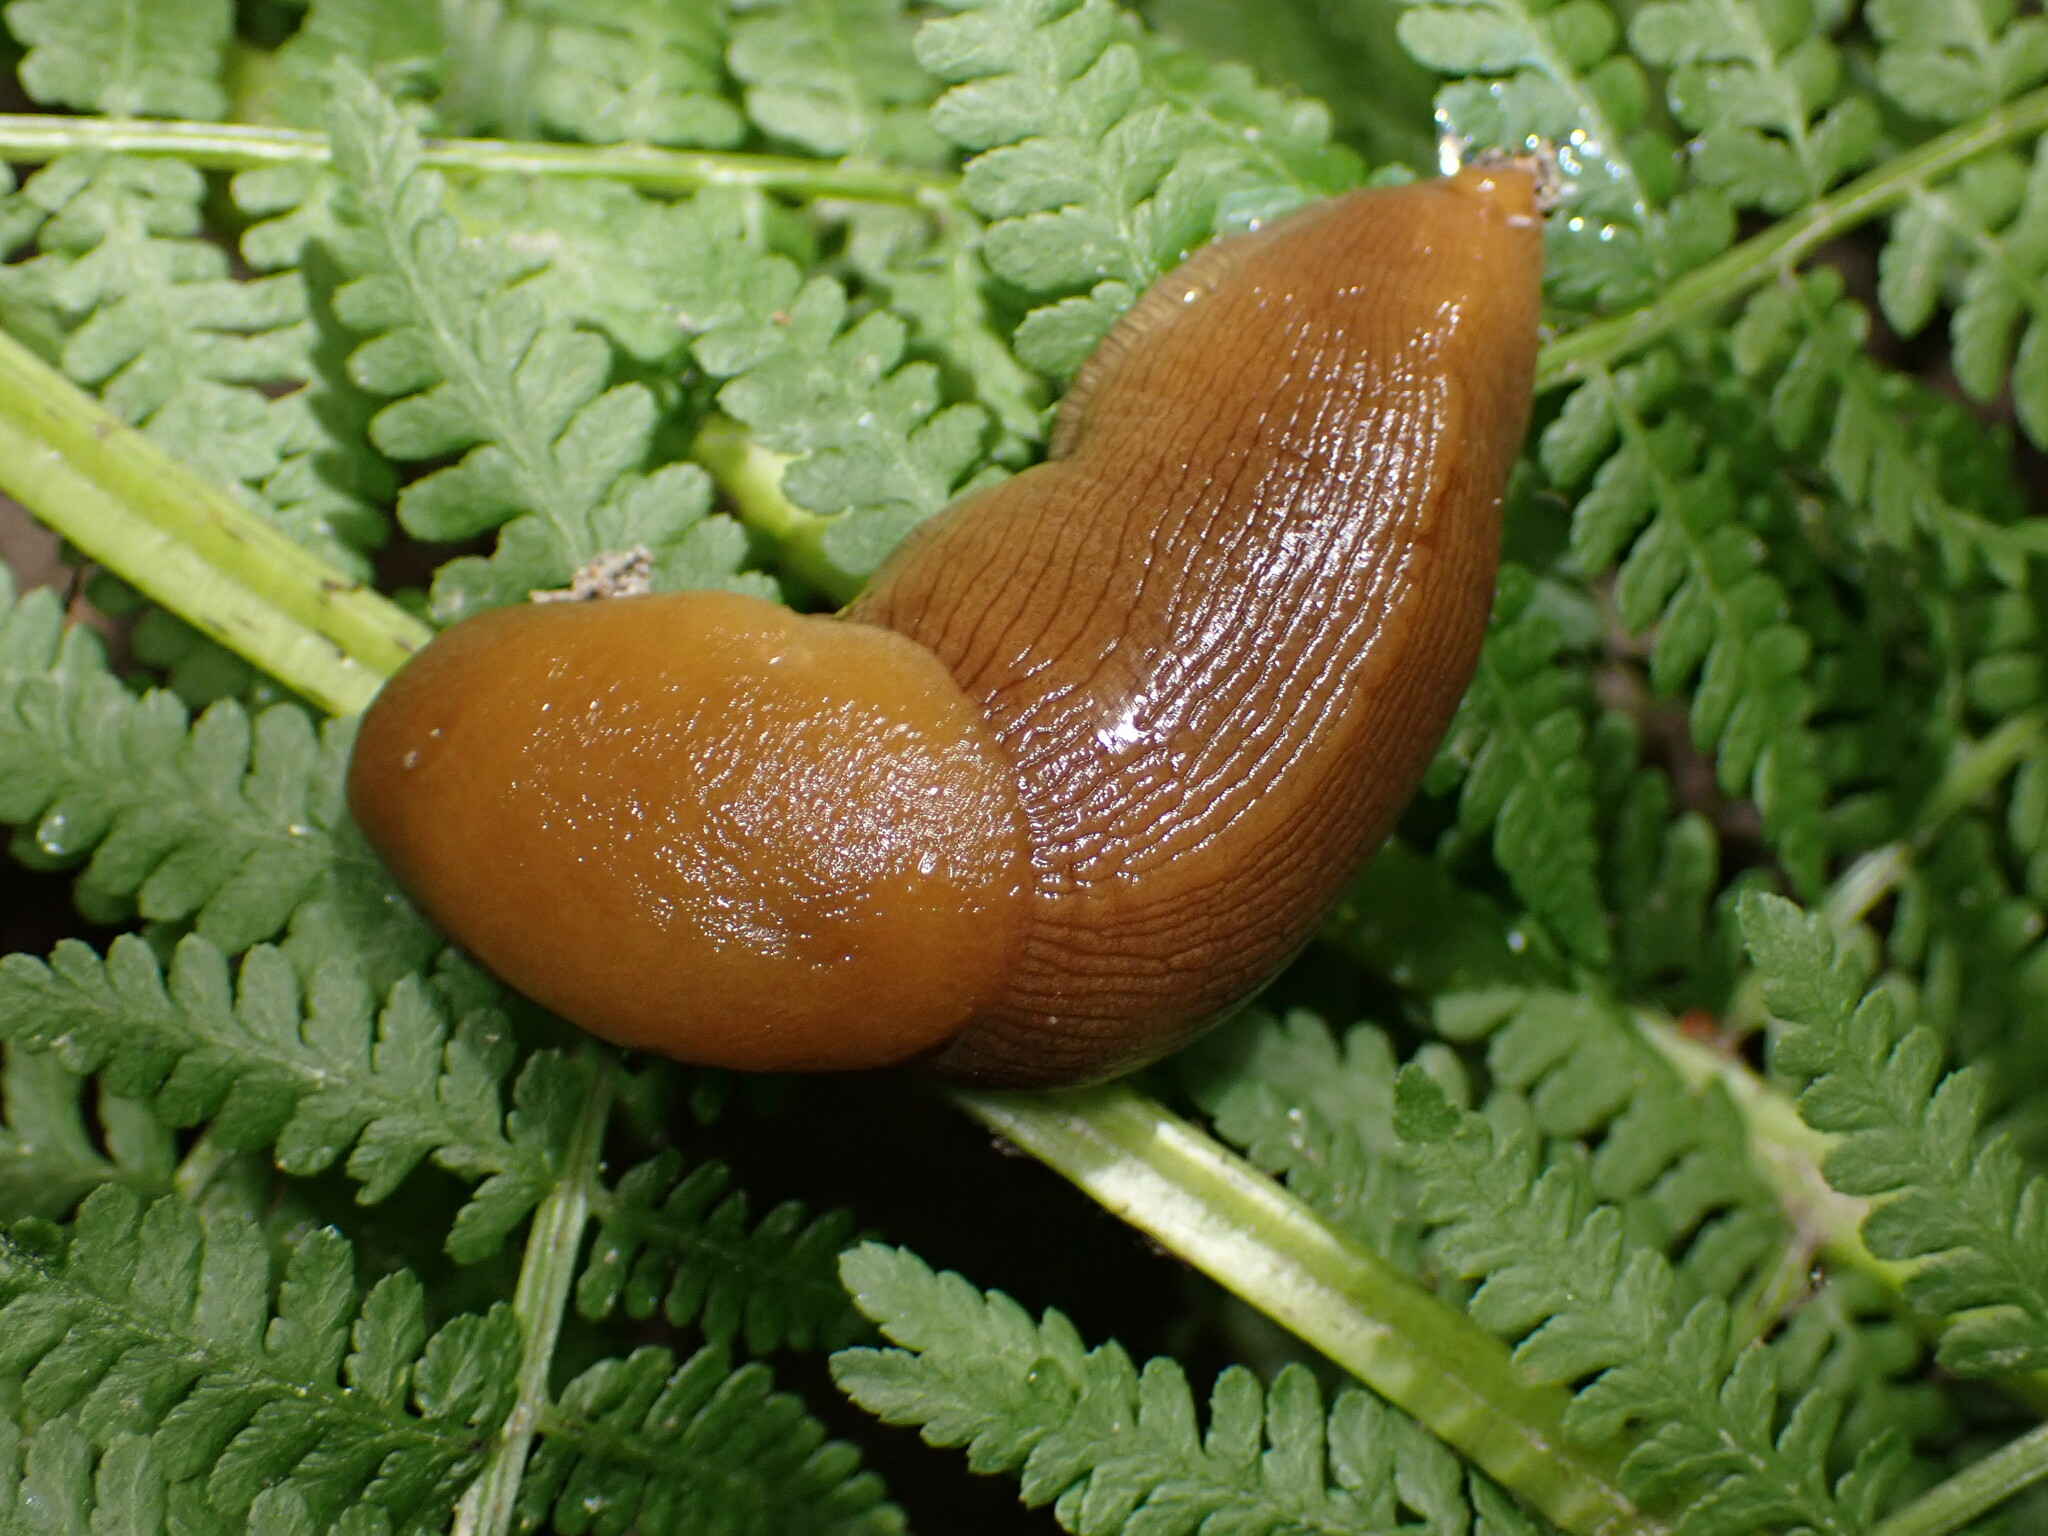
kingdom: Animalia
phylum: Mollusca
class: Gastropoda
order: Stylommatophora
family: Ariolimacidae
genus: Ariolimax
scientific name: Ariolimax buttoni
